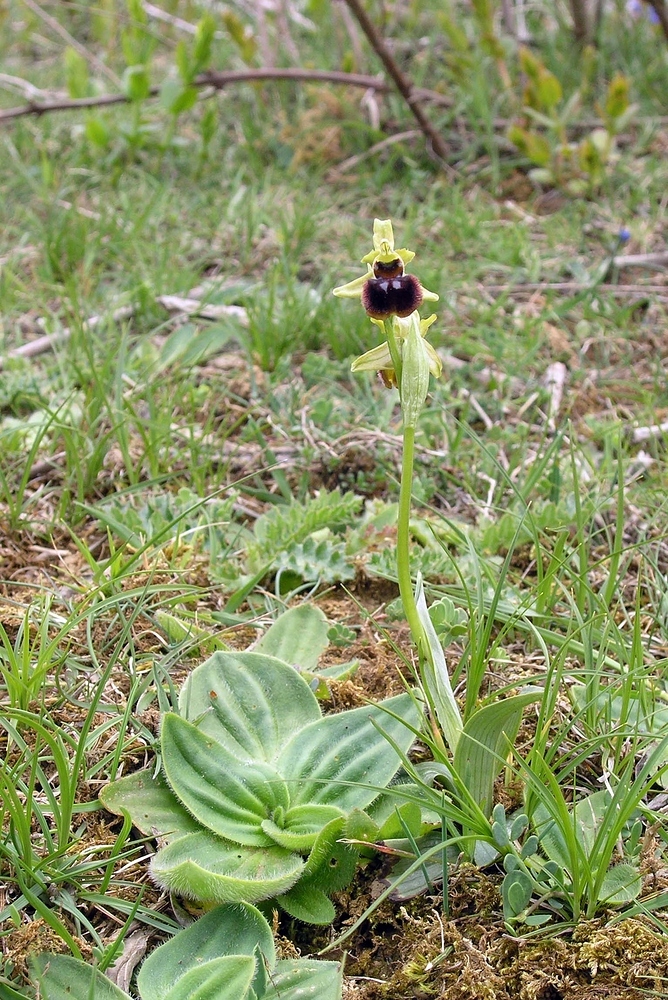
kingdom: Plantae
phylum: Tracheophyta
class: Liliopsida
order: Asparagales
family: Orchidaceae
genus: Ophrys
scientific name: Ophrys arachnitiformis
